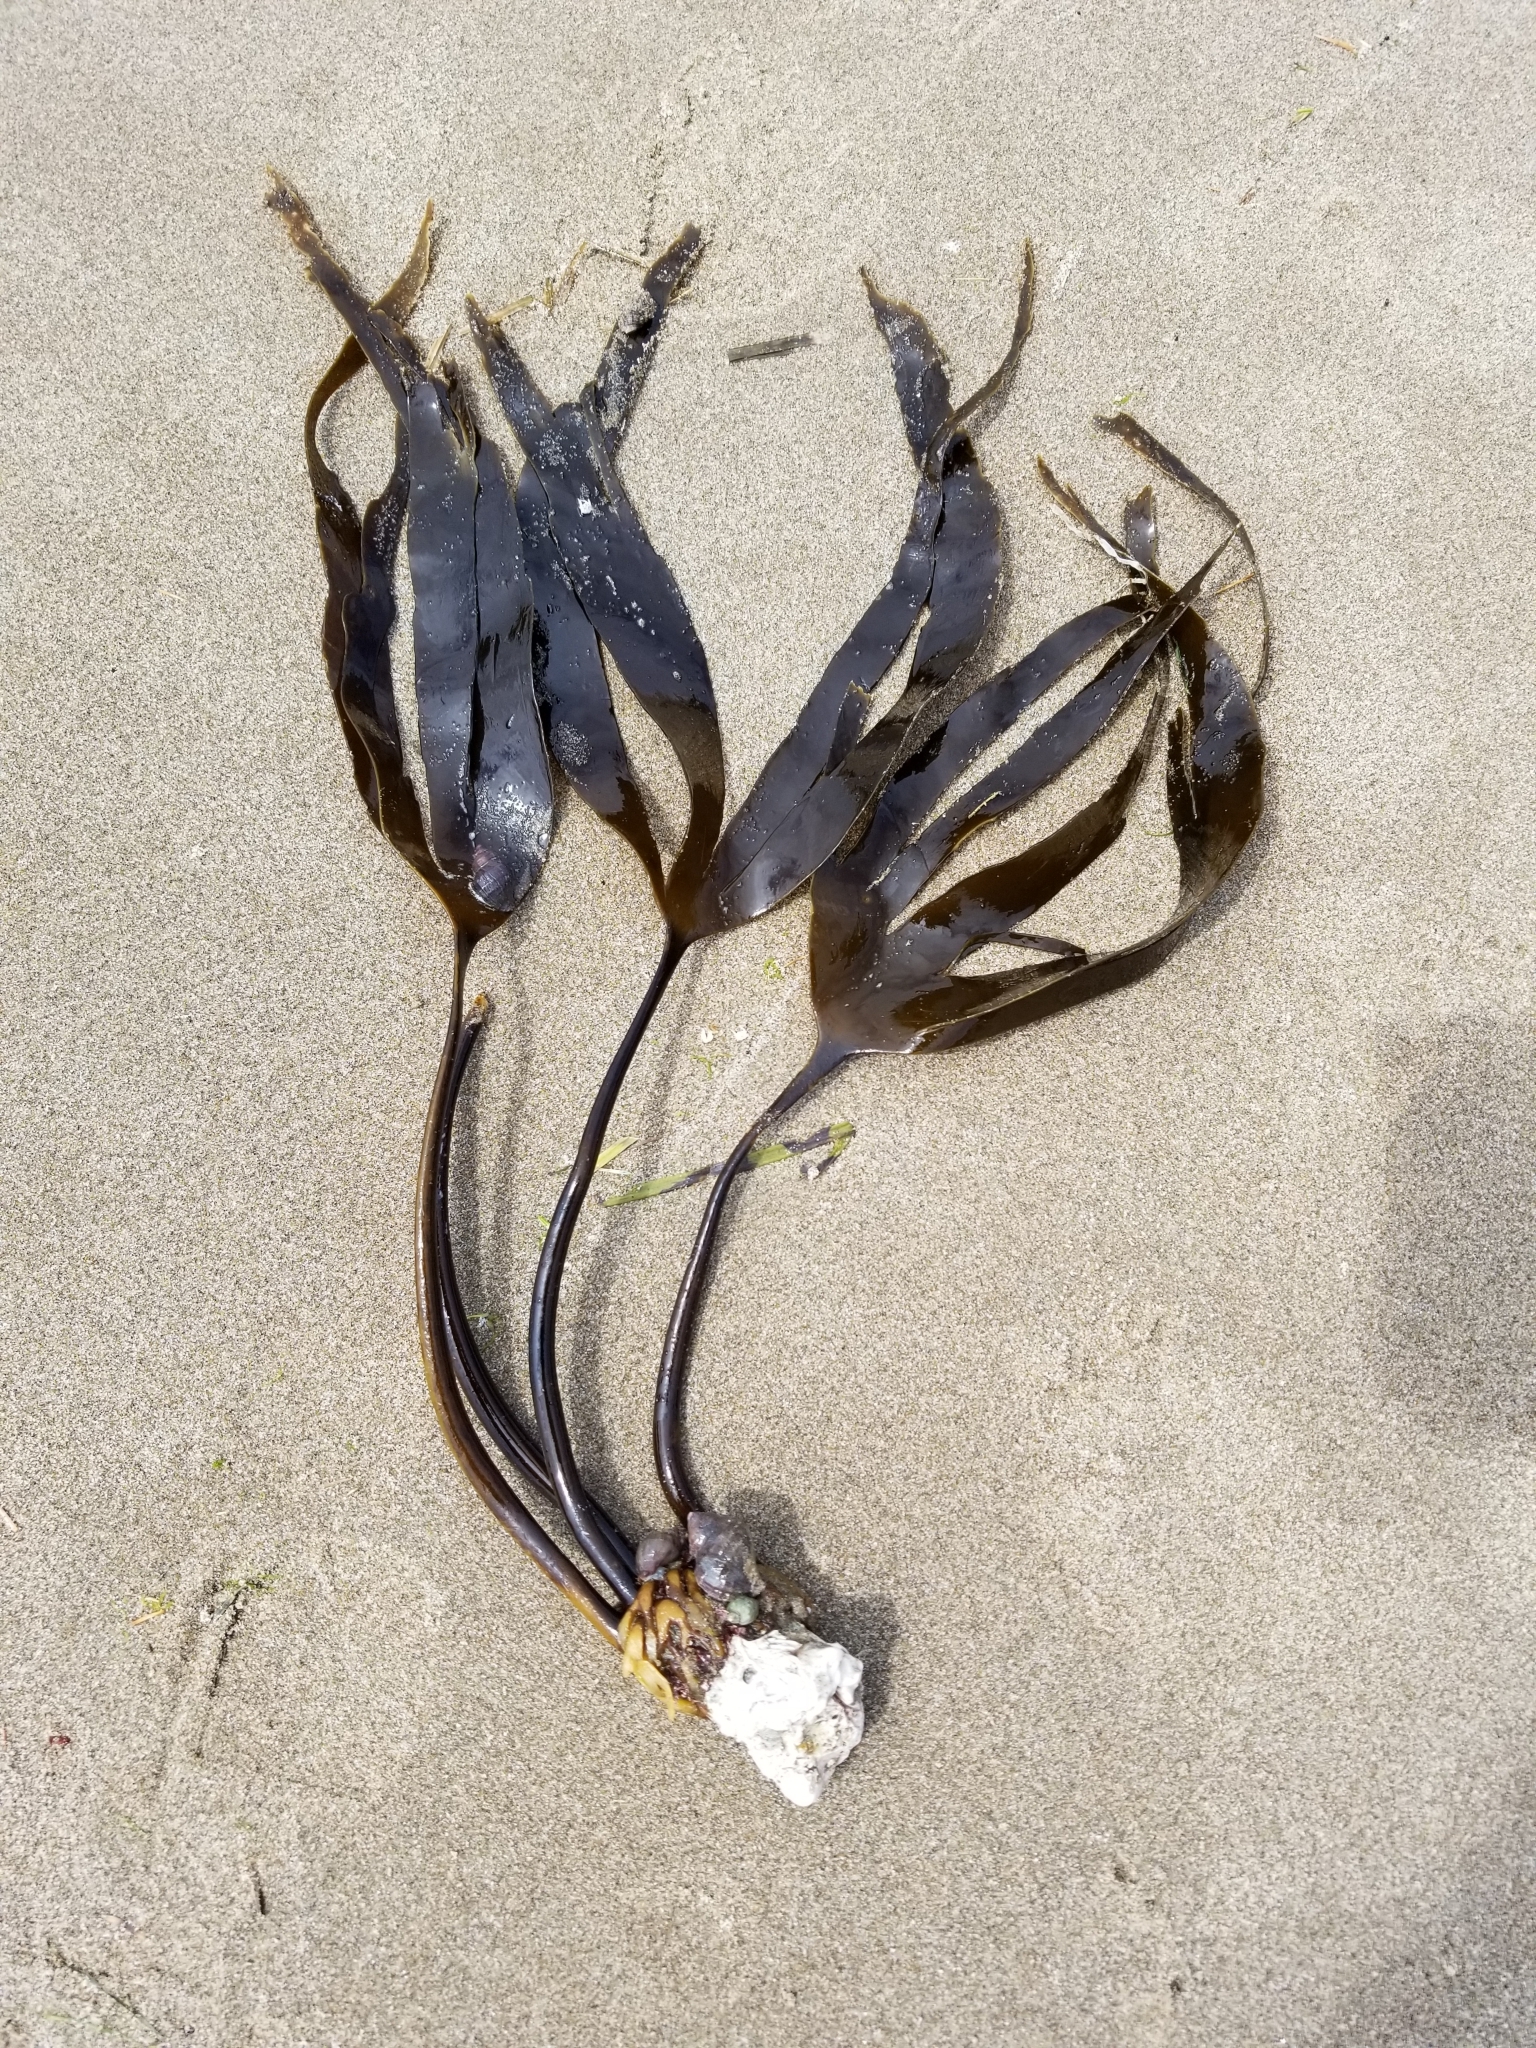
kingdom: Chromista
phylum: Ochrophyta
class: Phaeophyceae
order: Laminariales
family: Laminariaceae
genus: Laminaria
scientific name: Laminaria setchellii
